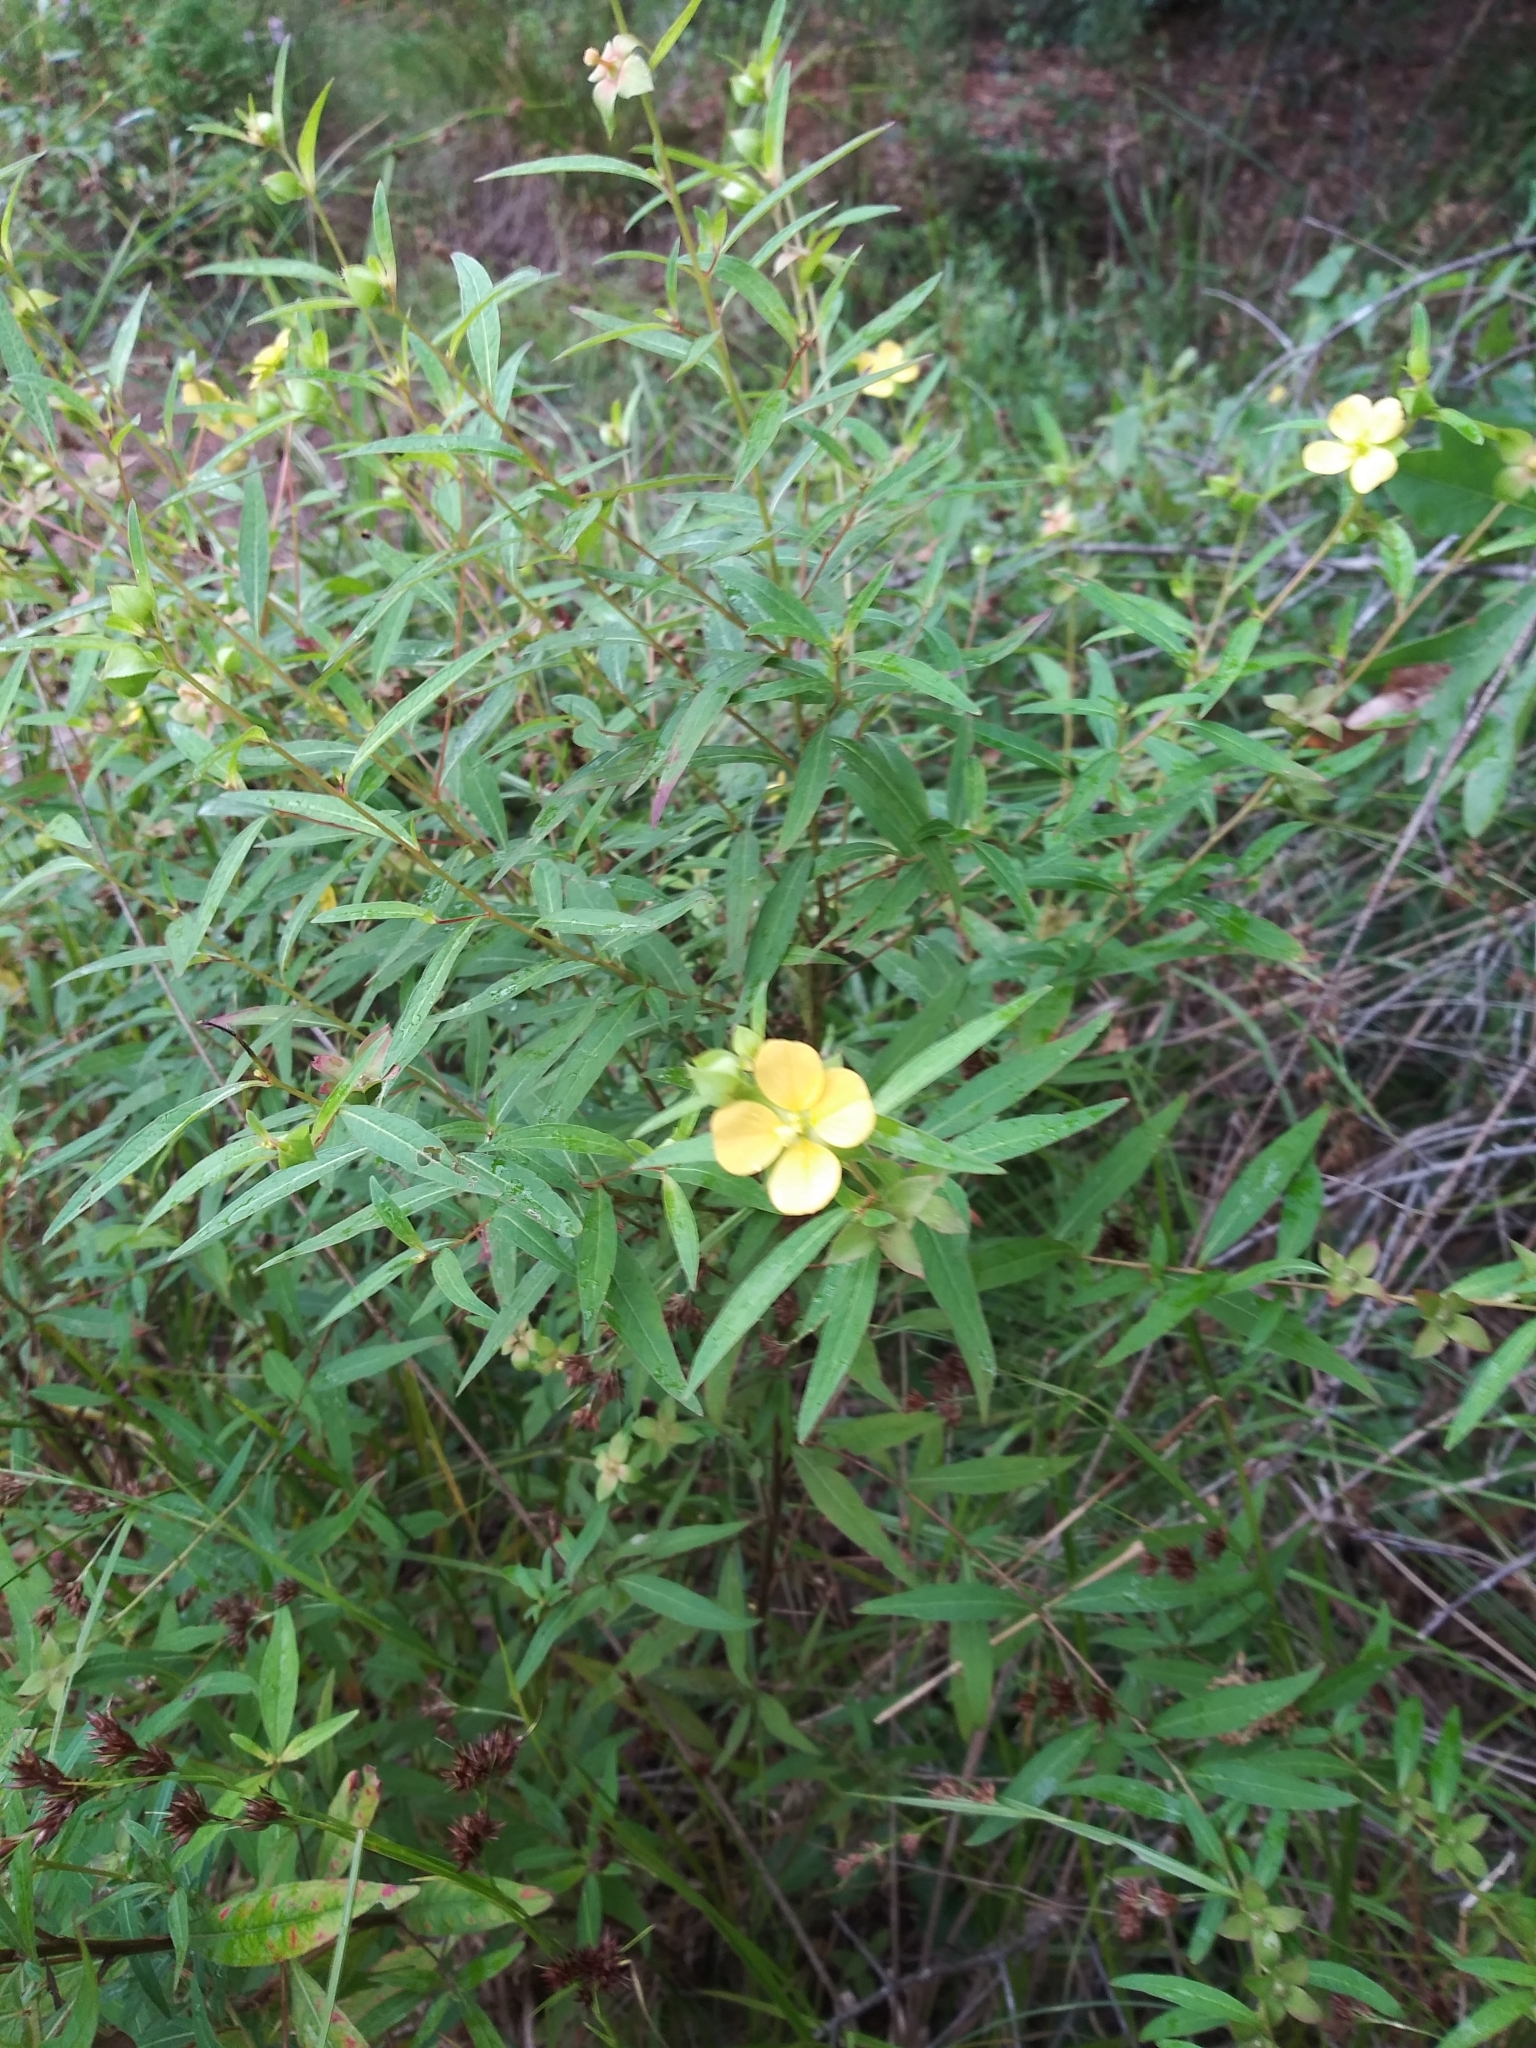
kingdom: Plantae
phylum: Tracheophyta
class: Magnoliopsida
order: Myrtales
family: Onagraceae
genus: Ludwigia
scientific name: Ludwigia alternifolia
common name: Rattlebox
